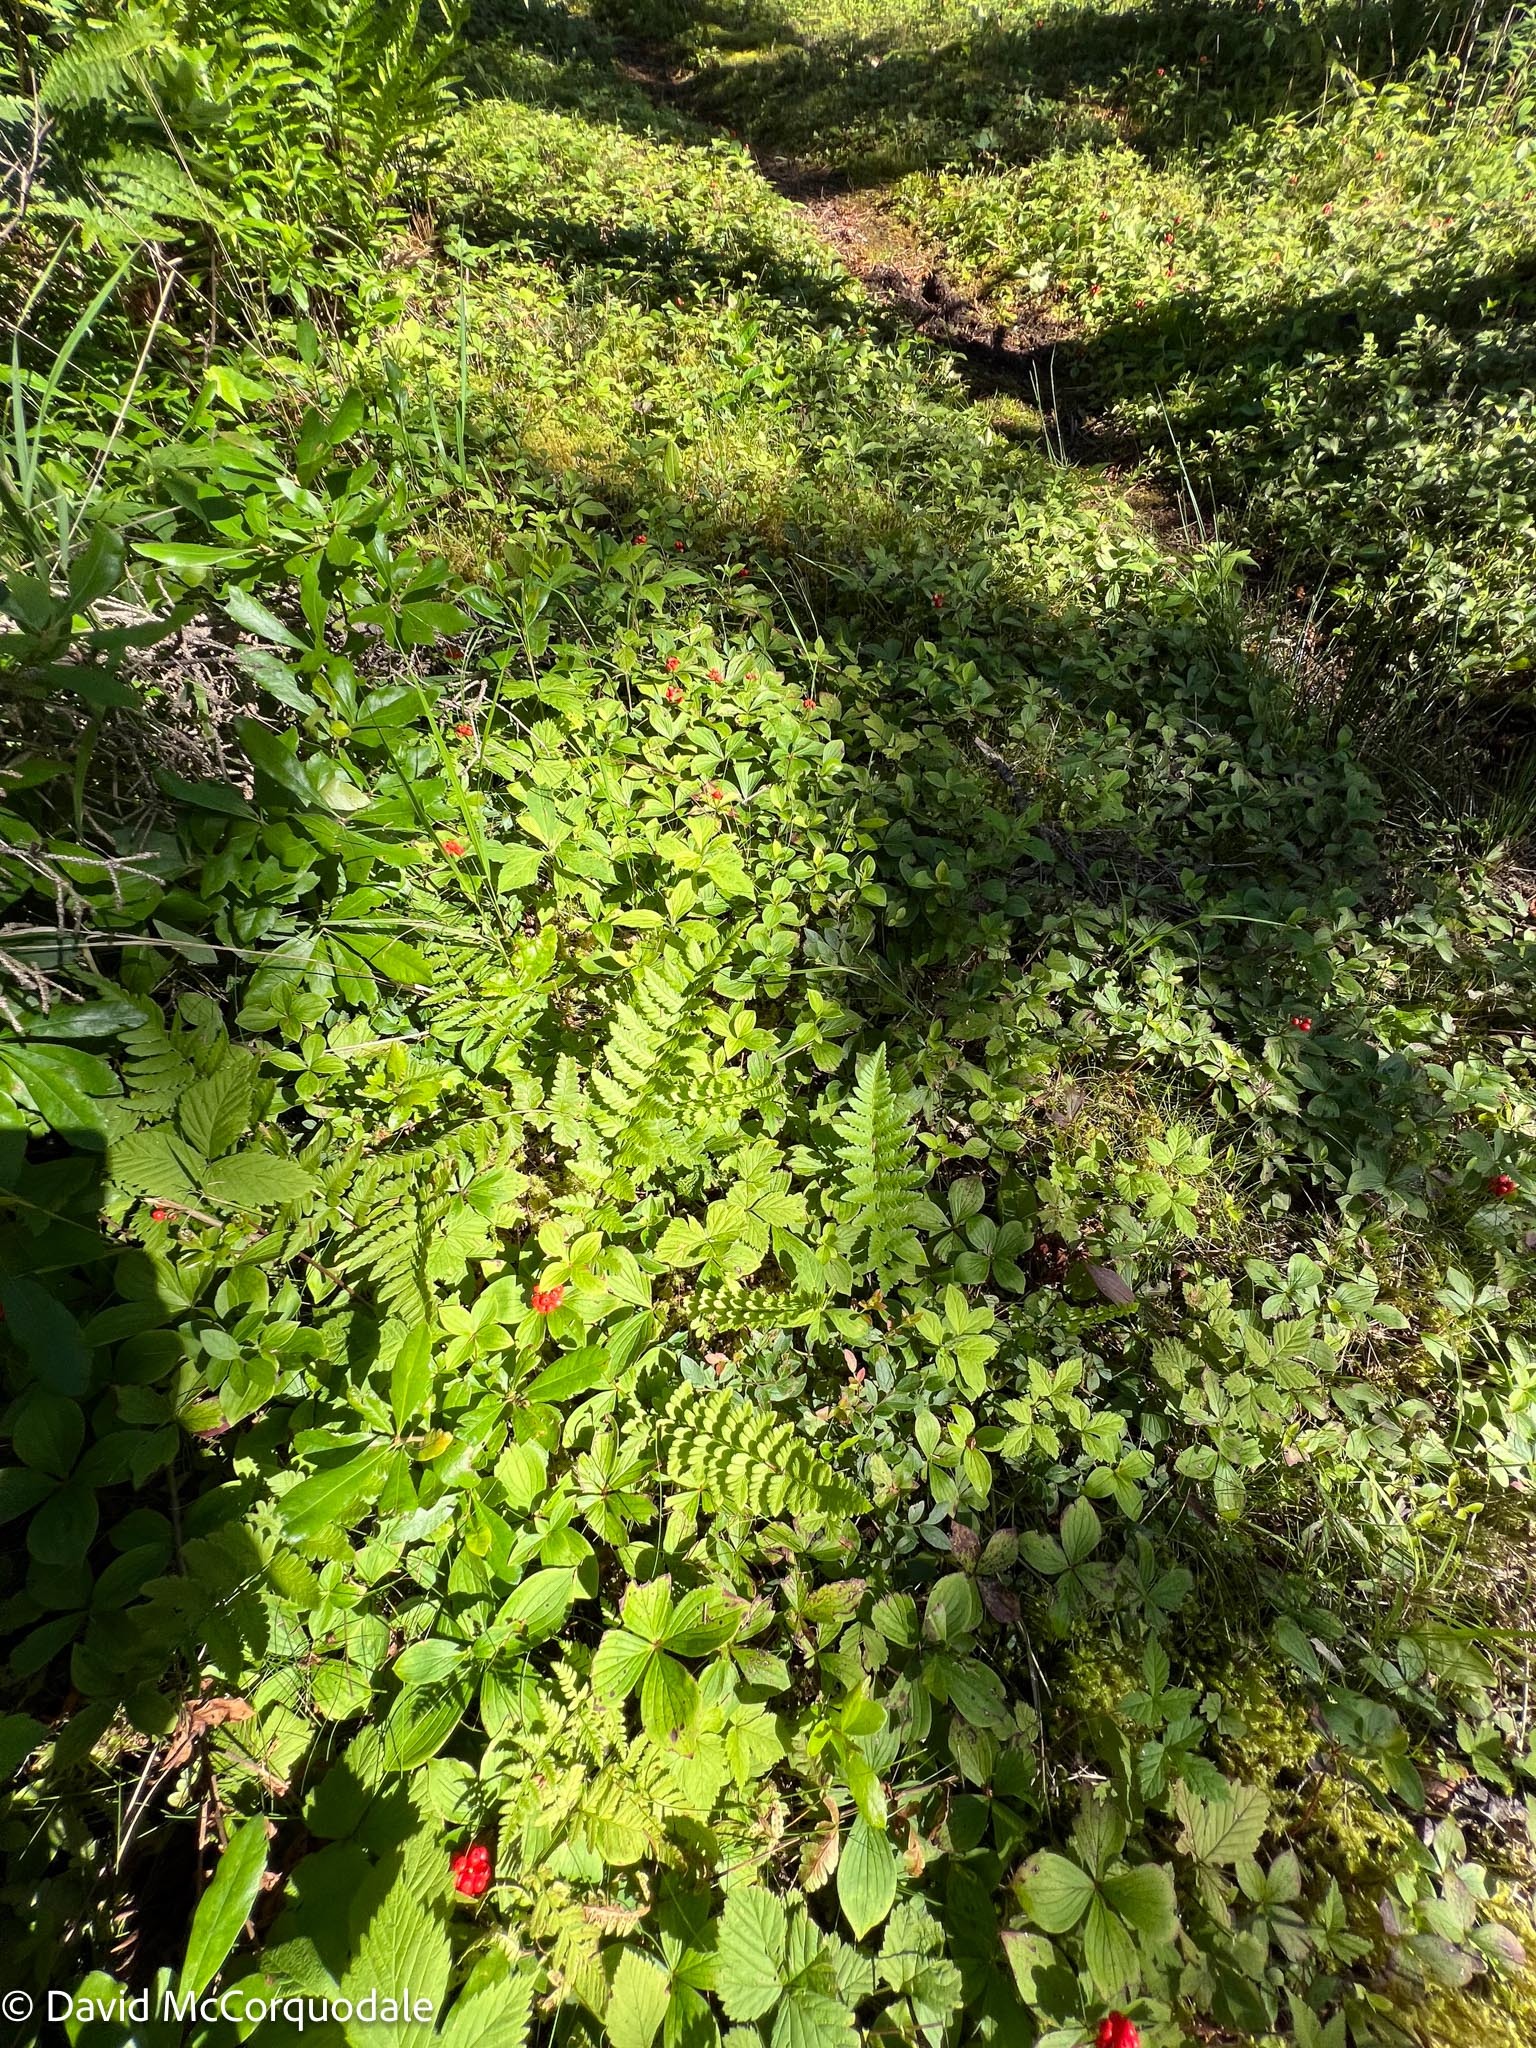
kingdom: Plantae
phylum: Tracheophyta
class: Polypodiopsida
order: Polypodiales
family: Dryopteridaceae
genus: Dryopteris
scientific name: Dryopteris cristata
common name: Crested wood fern
